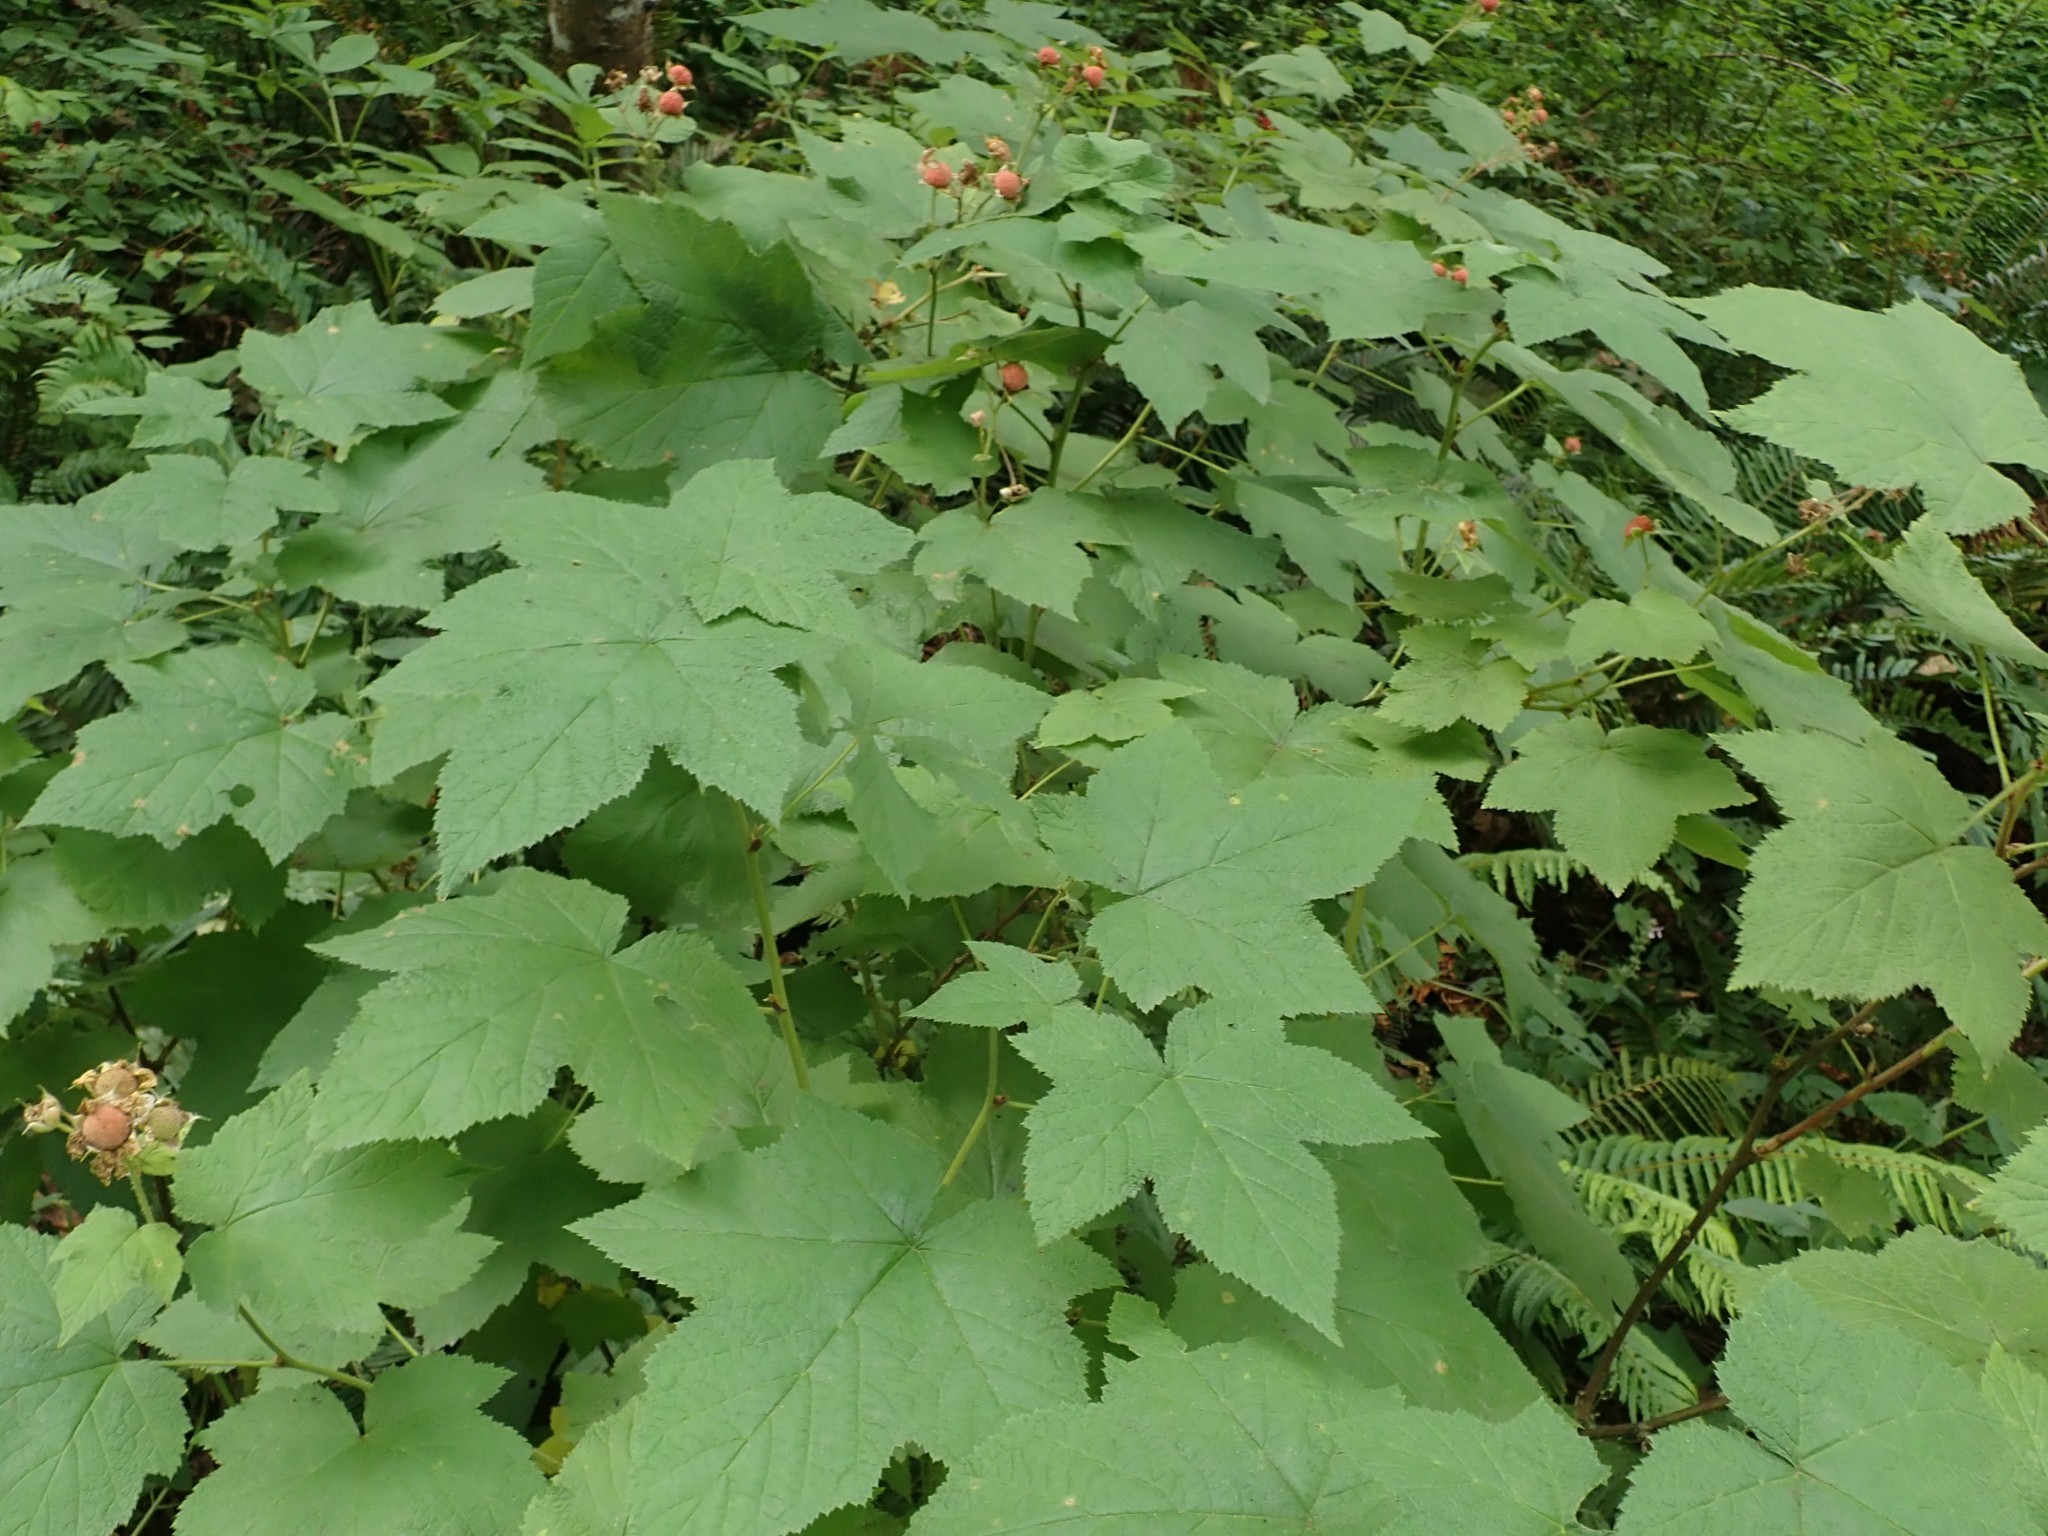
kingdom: Plantae
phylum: Tracheophyta
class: Magnoliopsida
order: Rosales
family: Rosaceae
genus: Rubus
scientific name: Rubus parviflorus
